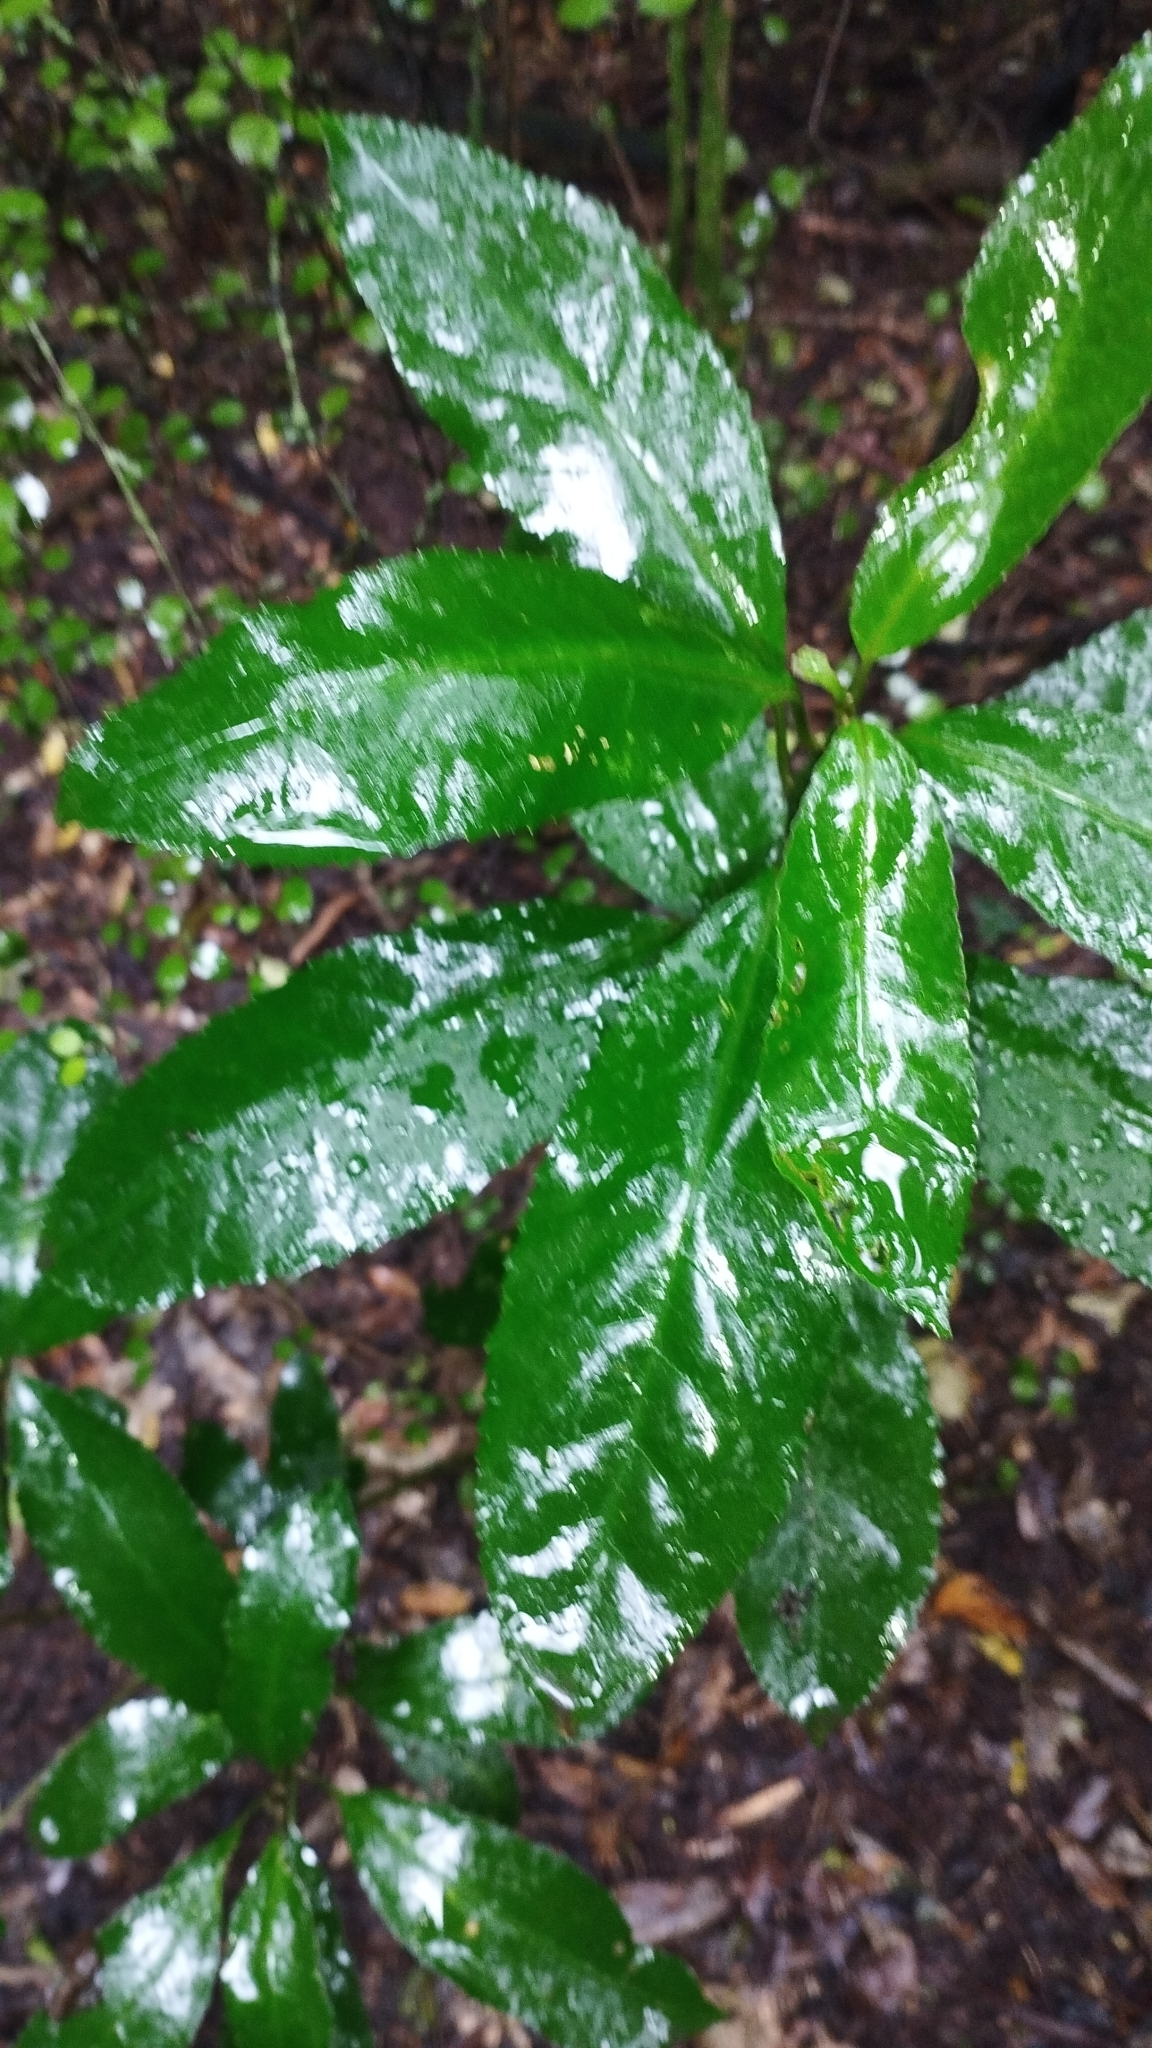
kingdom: Plantae
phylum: Tracheophyta
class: Magnoliopsida
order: Malpighiales
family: Violaceae
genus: Melicytus
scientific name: Melicytus ramiflorus
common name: Mahoe
